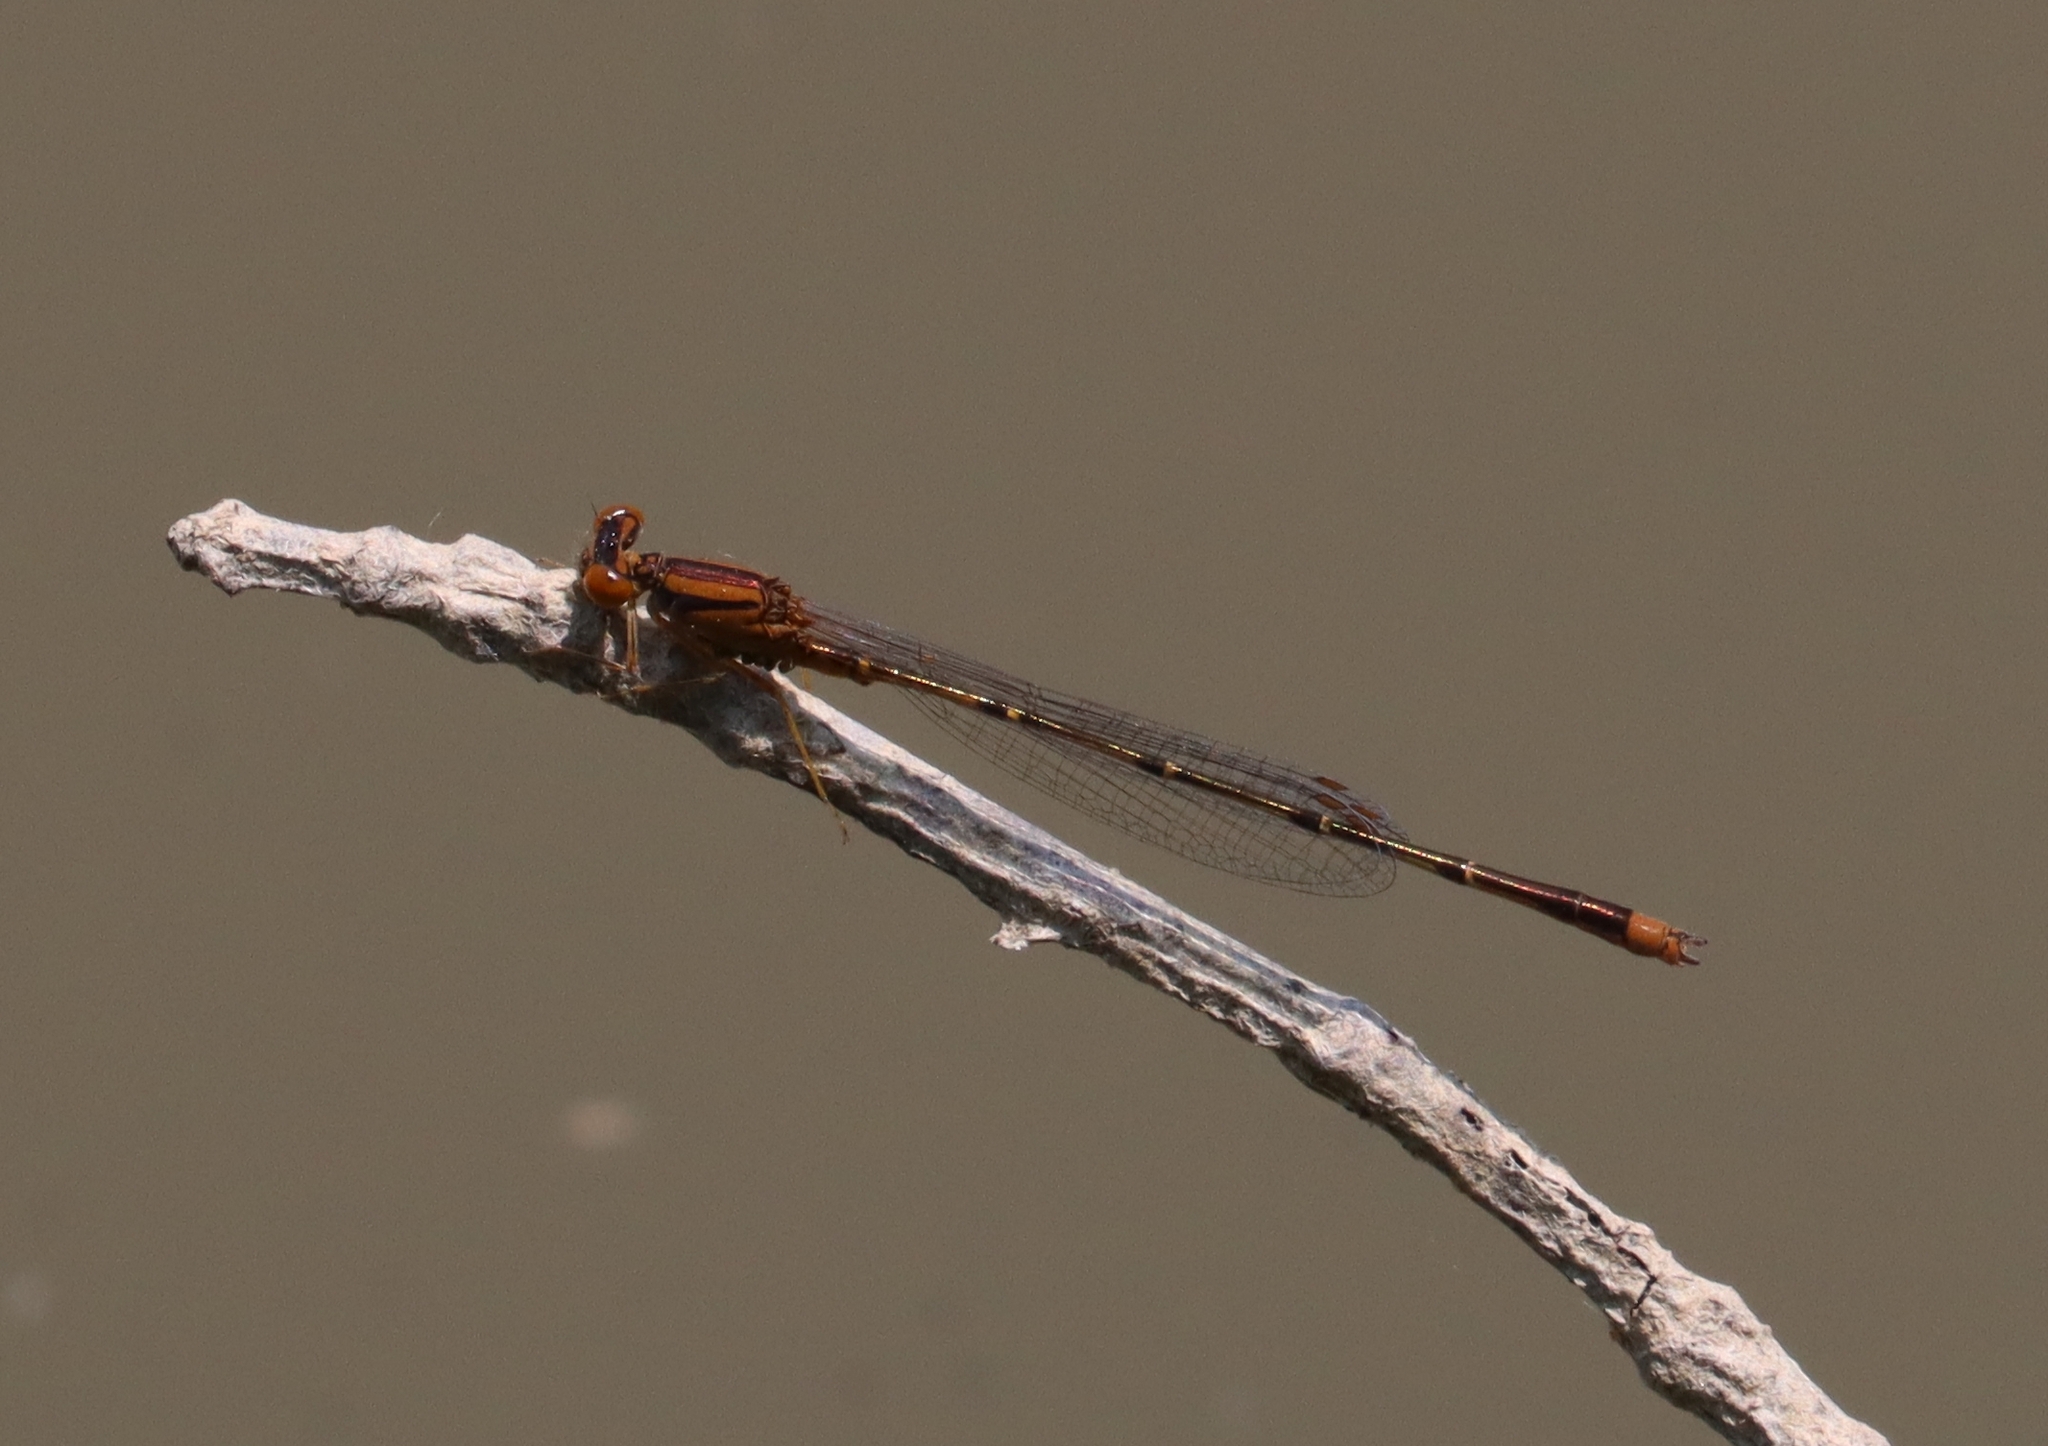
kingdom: Animalia
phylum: Arthropoda
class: Insecta
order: Odonata
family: Coenagrionidae
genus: Enallagma
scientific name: Enallagma signatum
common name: Orange bluet
